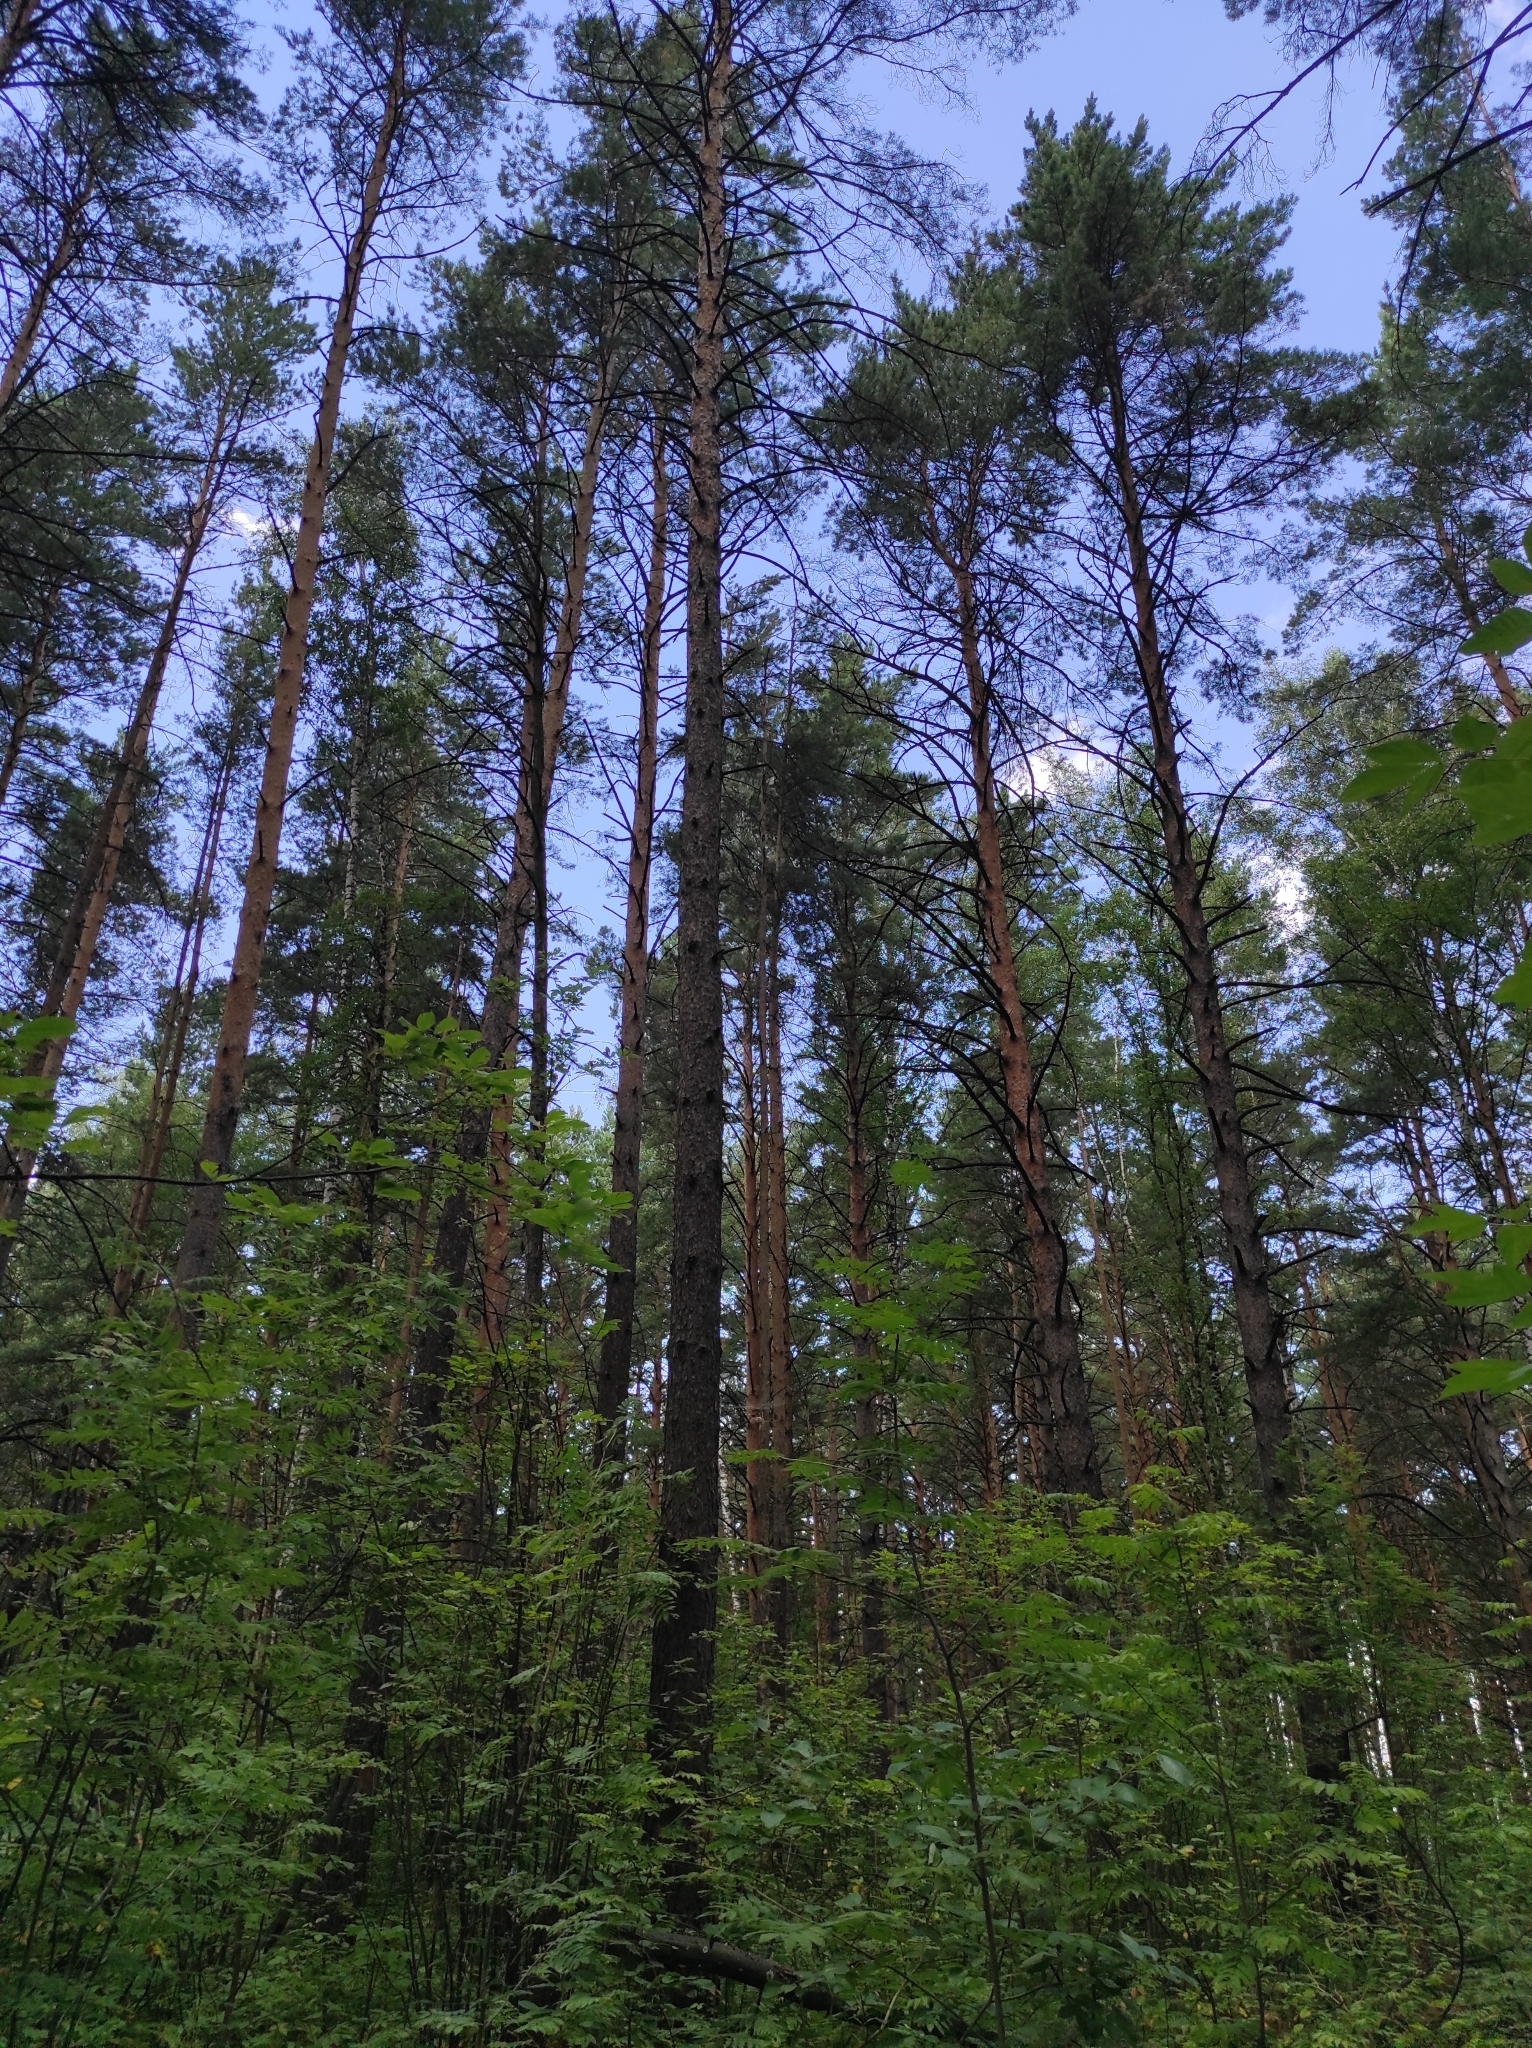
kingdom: Plantae
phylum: Tracheophyta
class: Pinopsida
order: Pinales
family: Pinaceae
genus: Pinus
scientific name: Pinus sylvestris
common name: Scots pine
